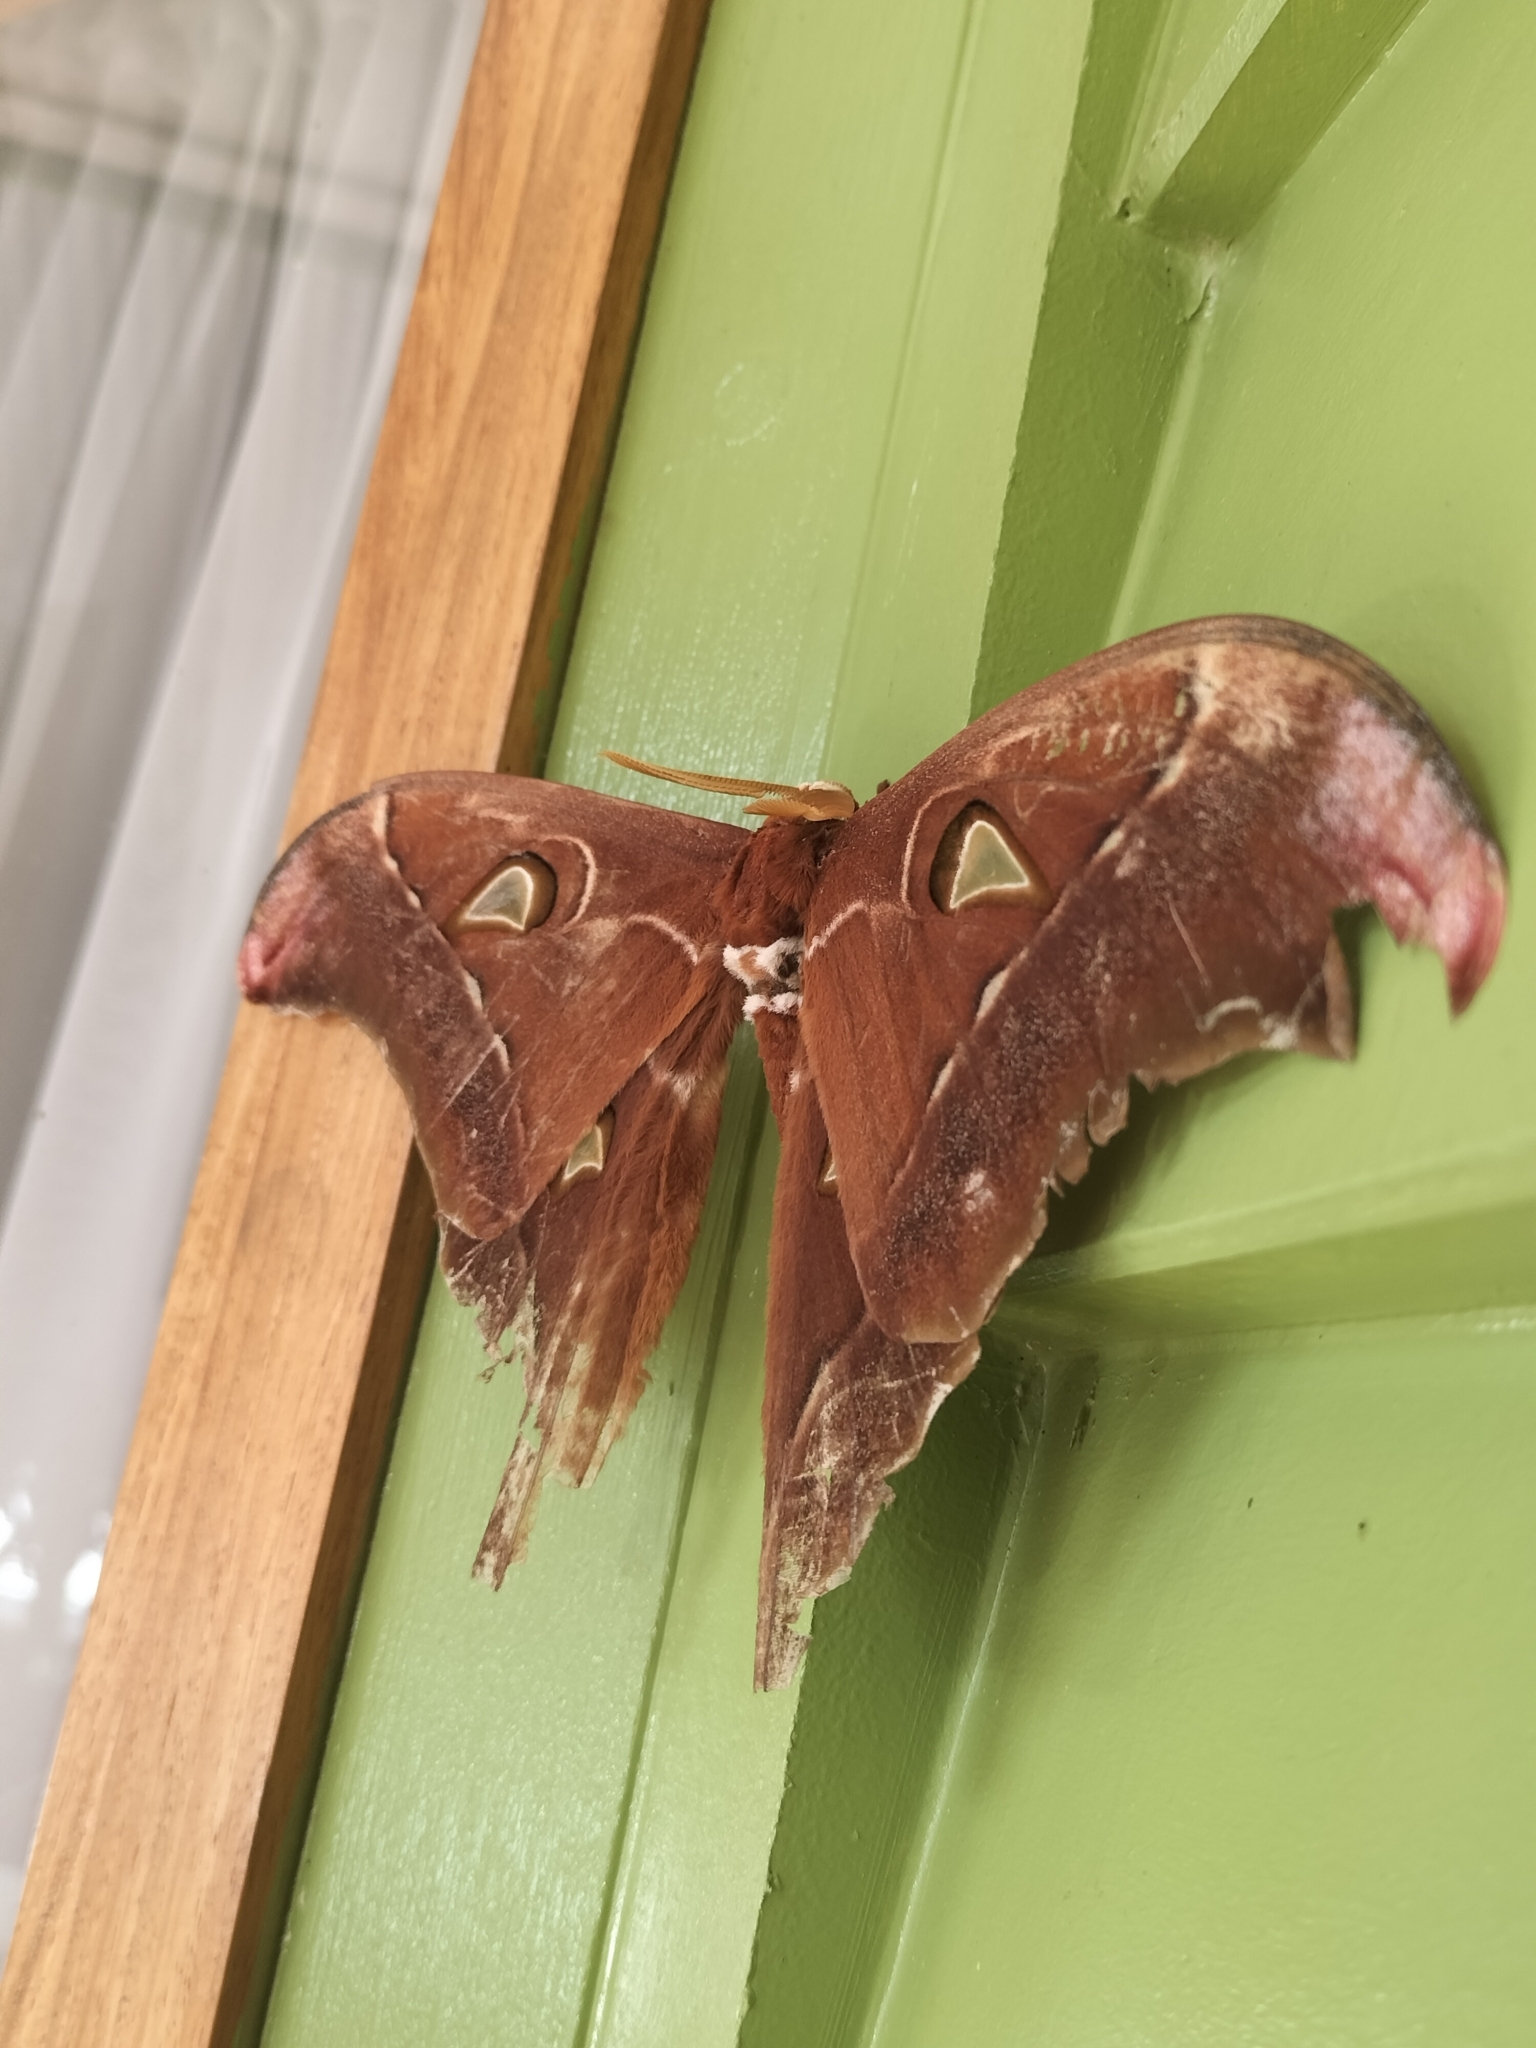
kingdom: Animalia
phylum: Arthropoda
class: Insecta
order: Lepidoptera
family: Saturniidae
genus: Coscinocera
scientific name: Coscinocera hercules
